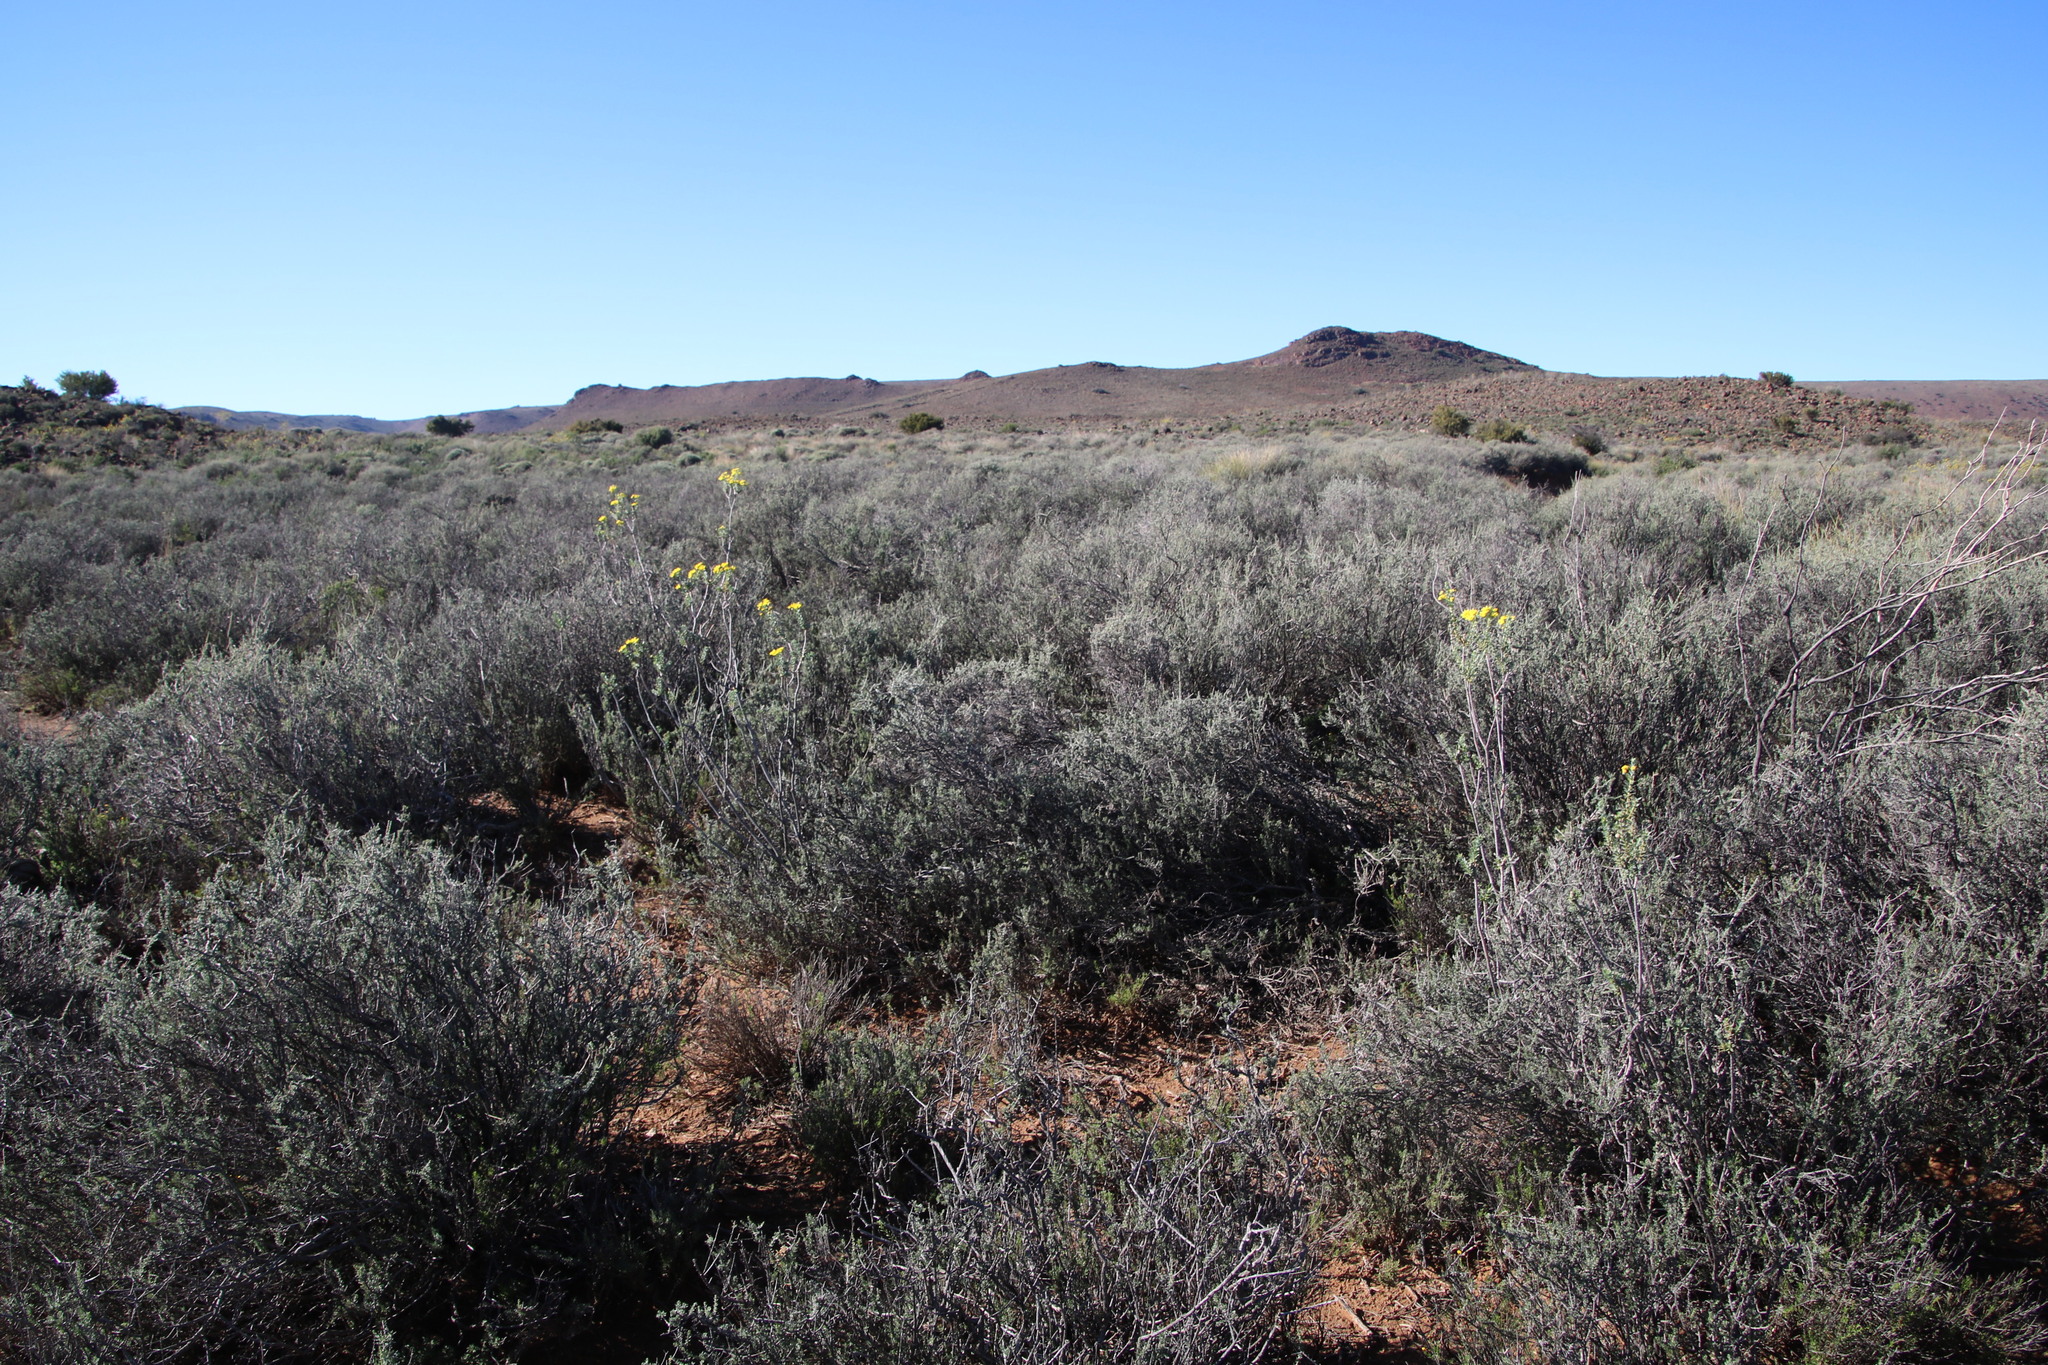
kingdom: Plantae
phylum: Tracheophyta
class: Magnoliopsida
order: Asterales
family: Asteraceae
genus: Euryops
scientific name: Euryops lateriflorus
